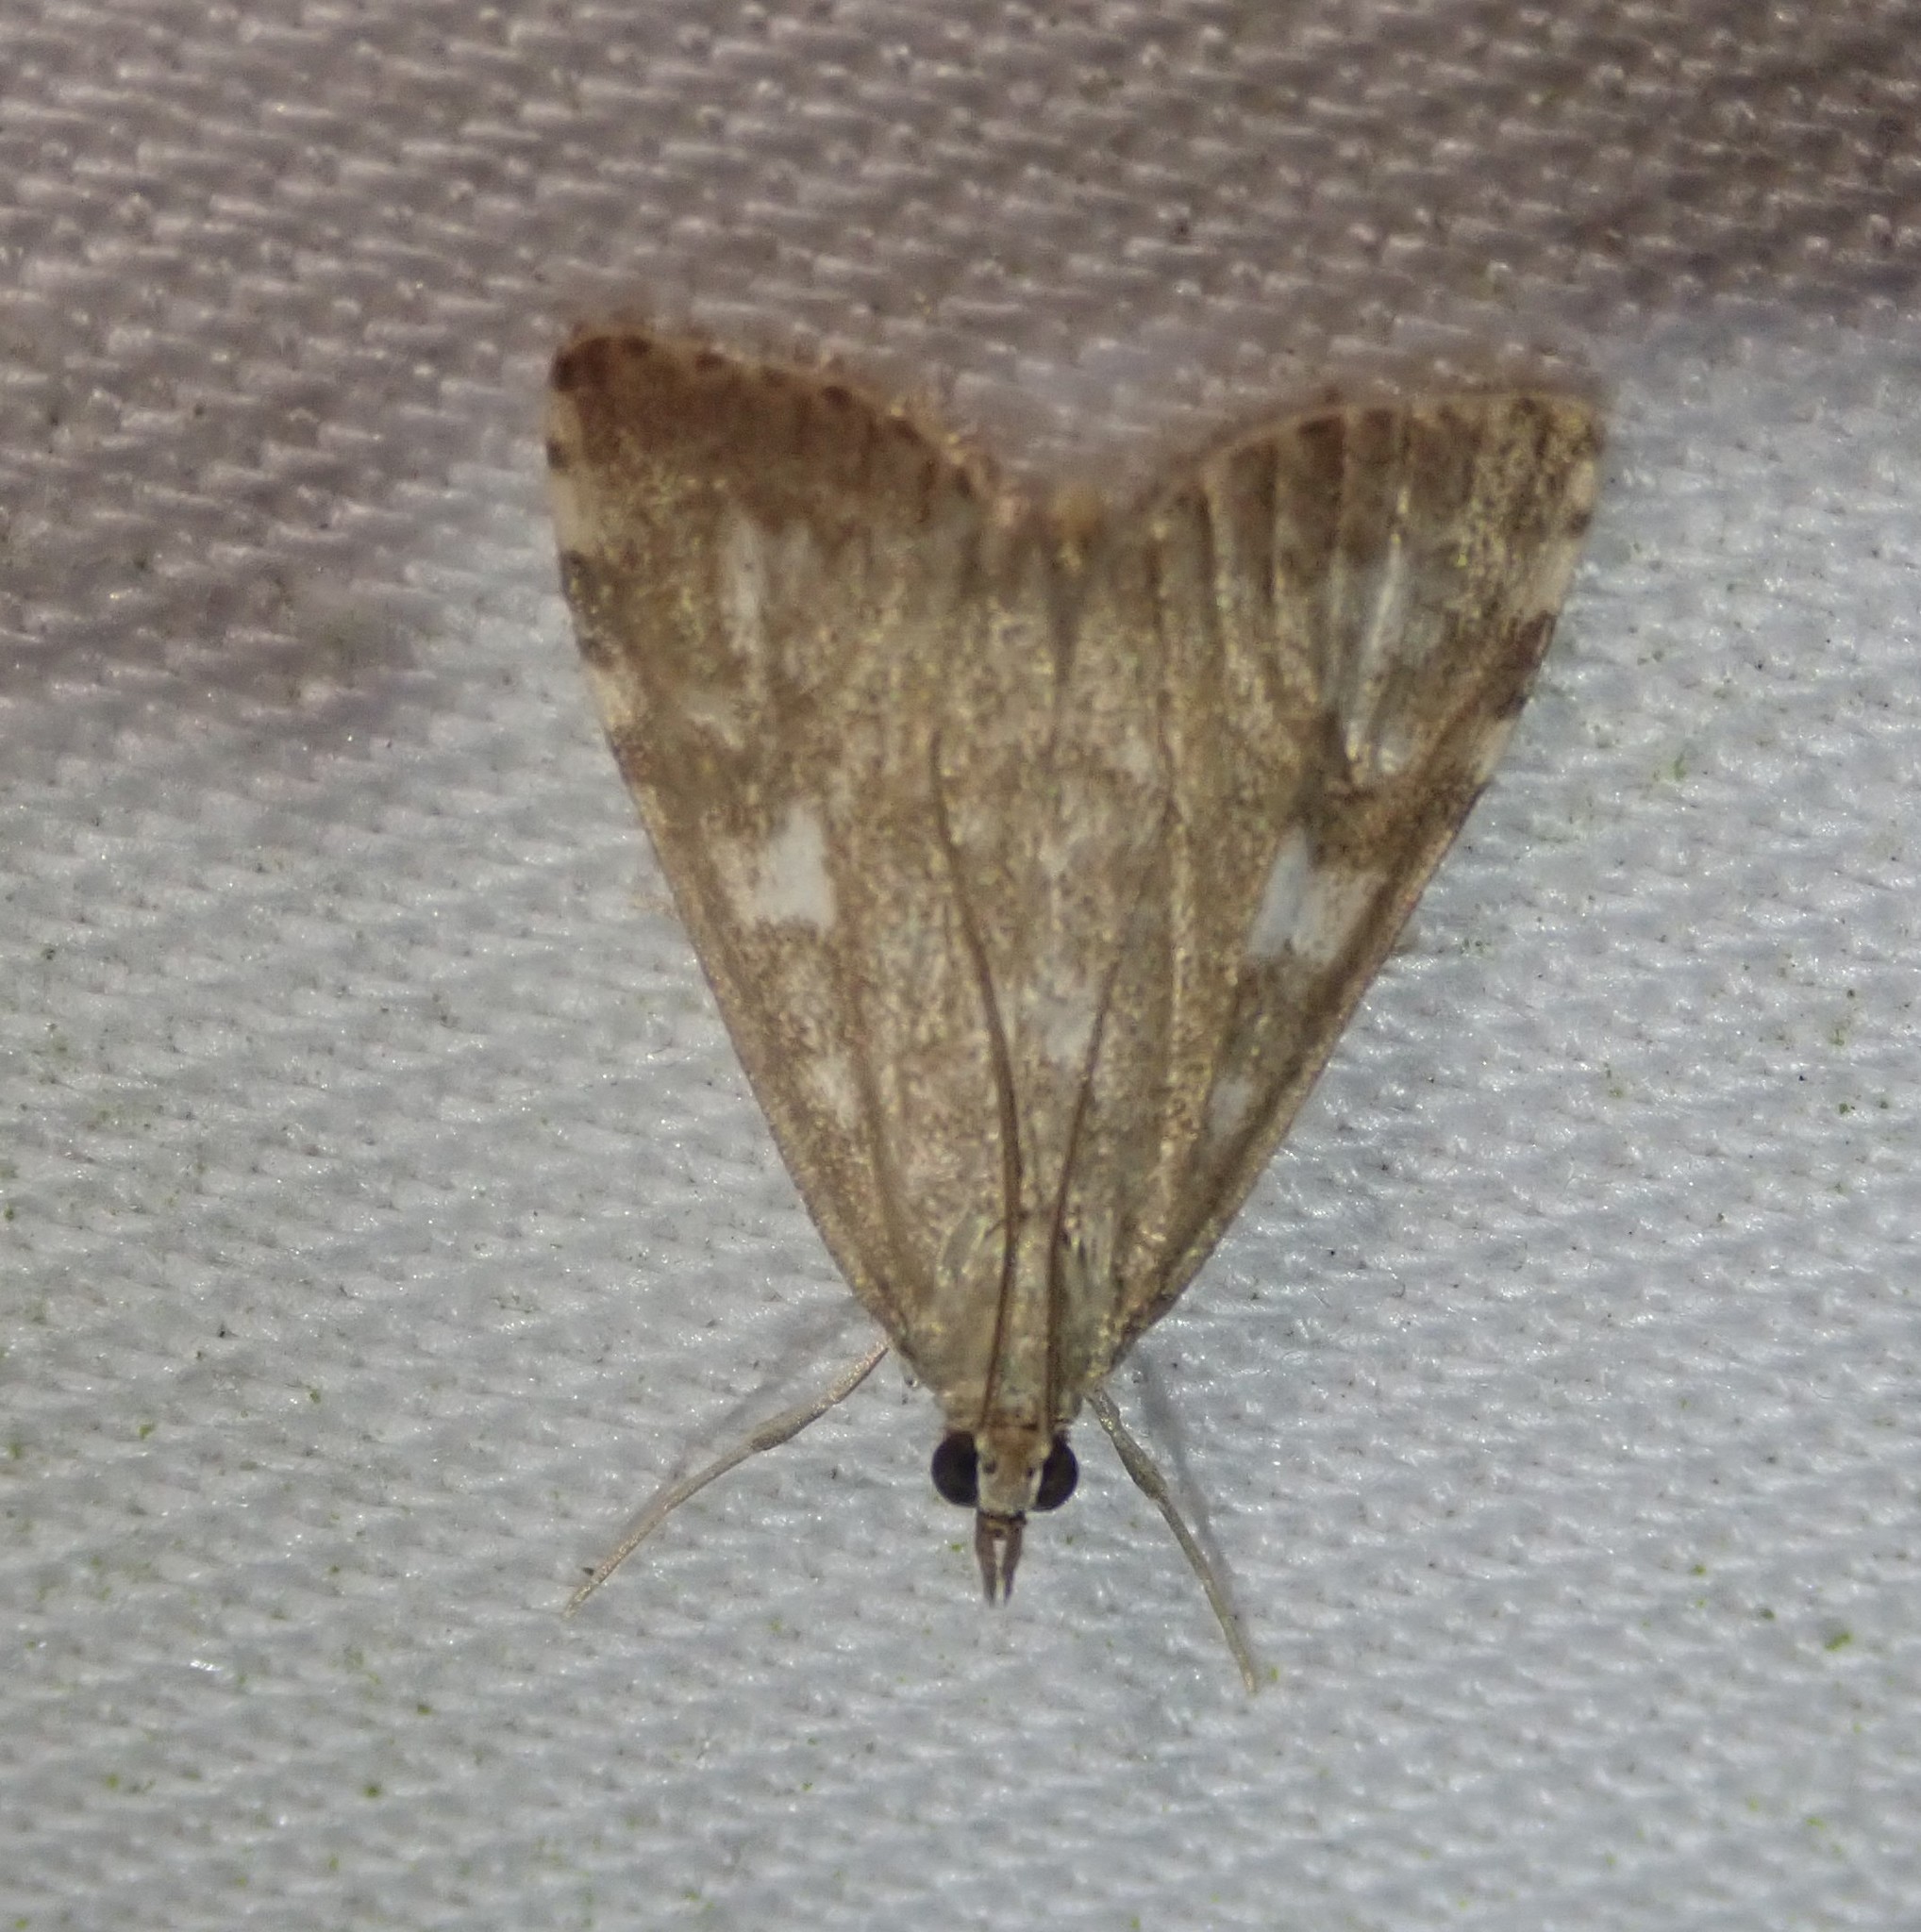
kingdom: Animalia
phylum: Arthropoda
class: Insecta
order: Lepidoptera
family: Crambidae
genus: Udea
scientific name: Udea olivalis
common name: Olive pearl
